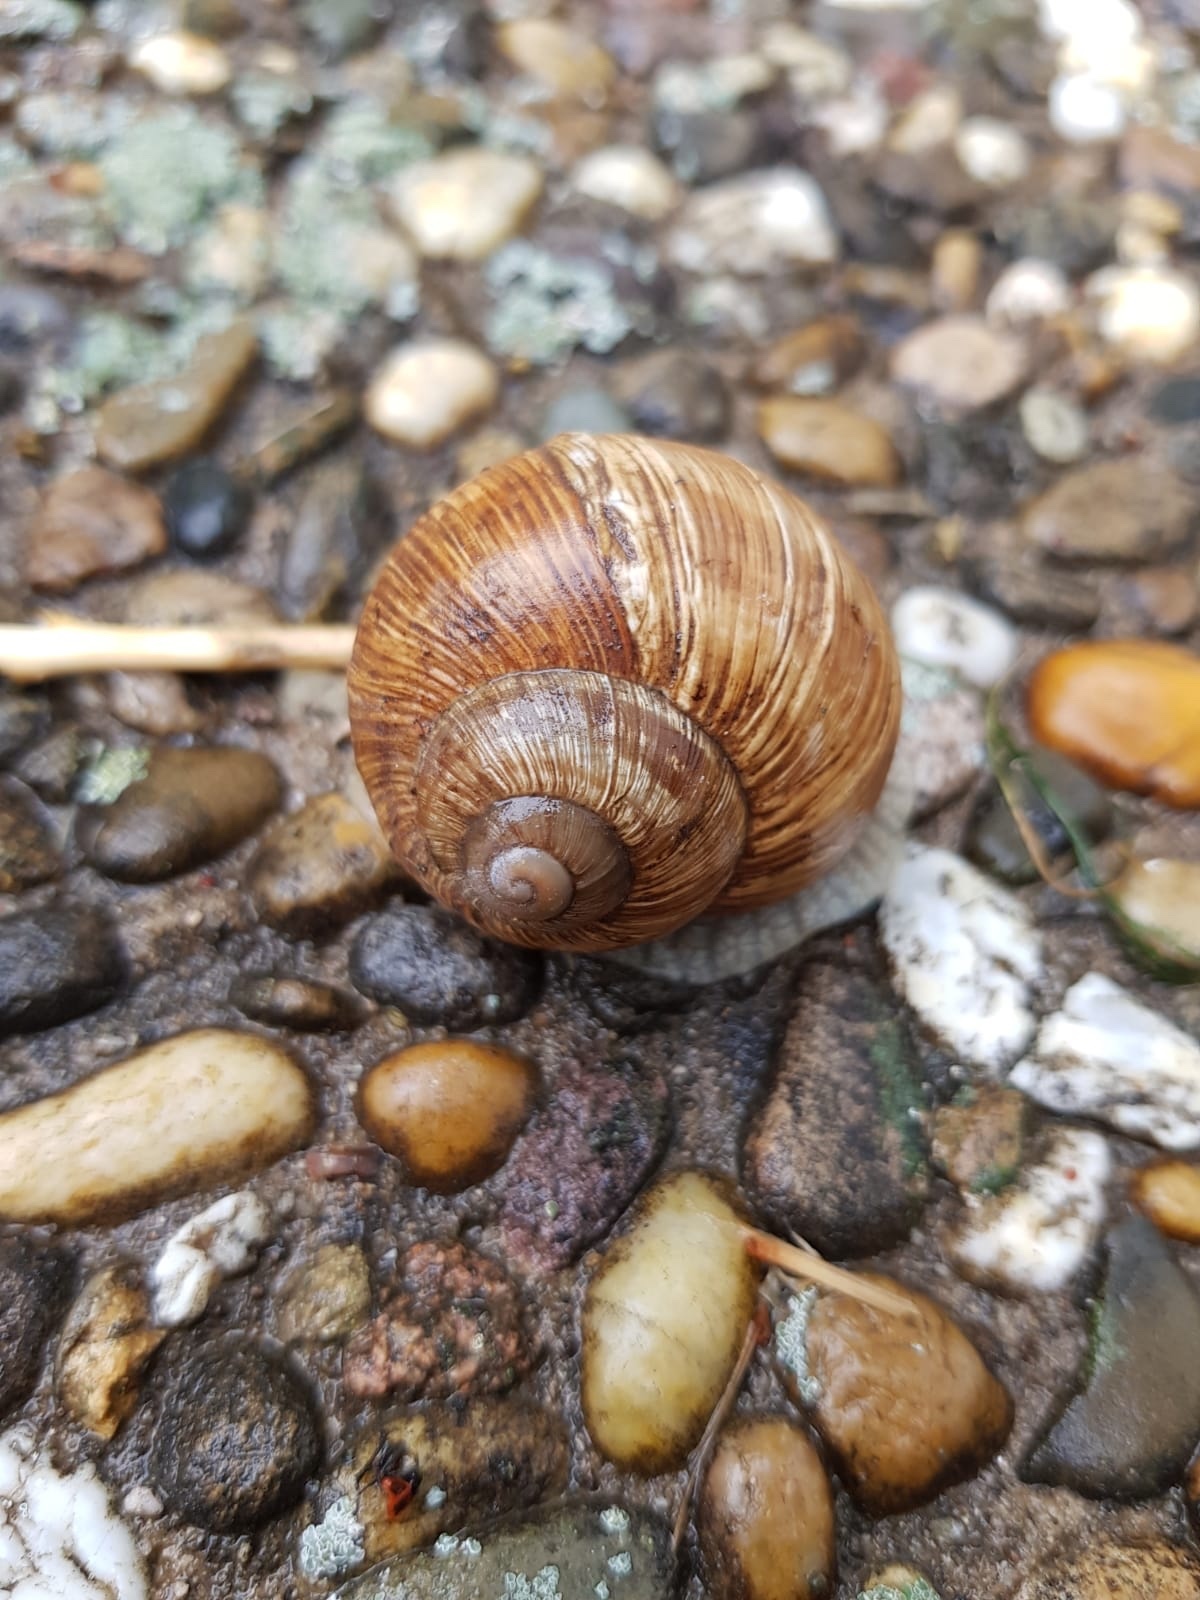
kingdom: Animalia
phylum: Mollusca
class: Gastropoda
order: Stylommatophora
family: Helicidae
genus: Helix
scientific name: Helix pomatia
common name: Roman snail
